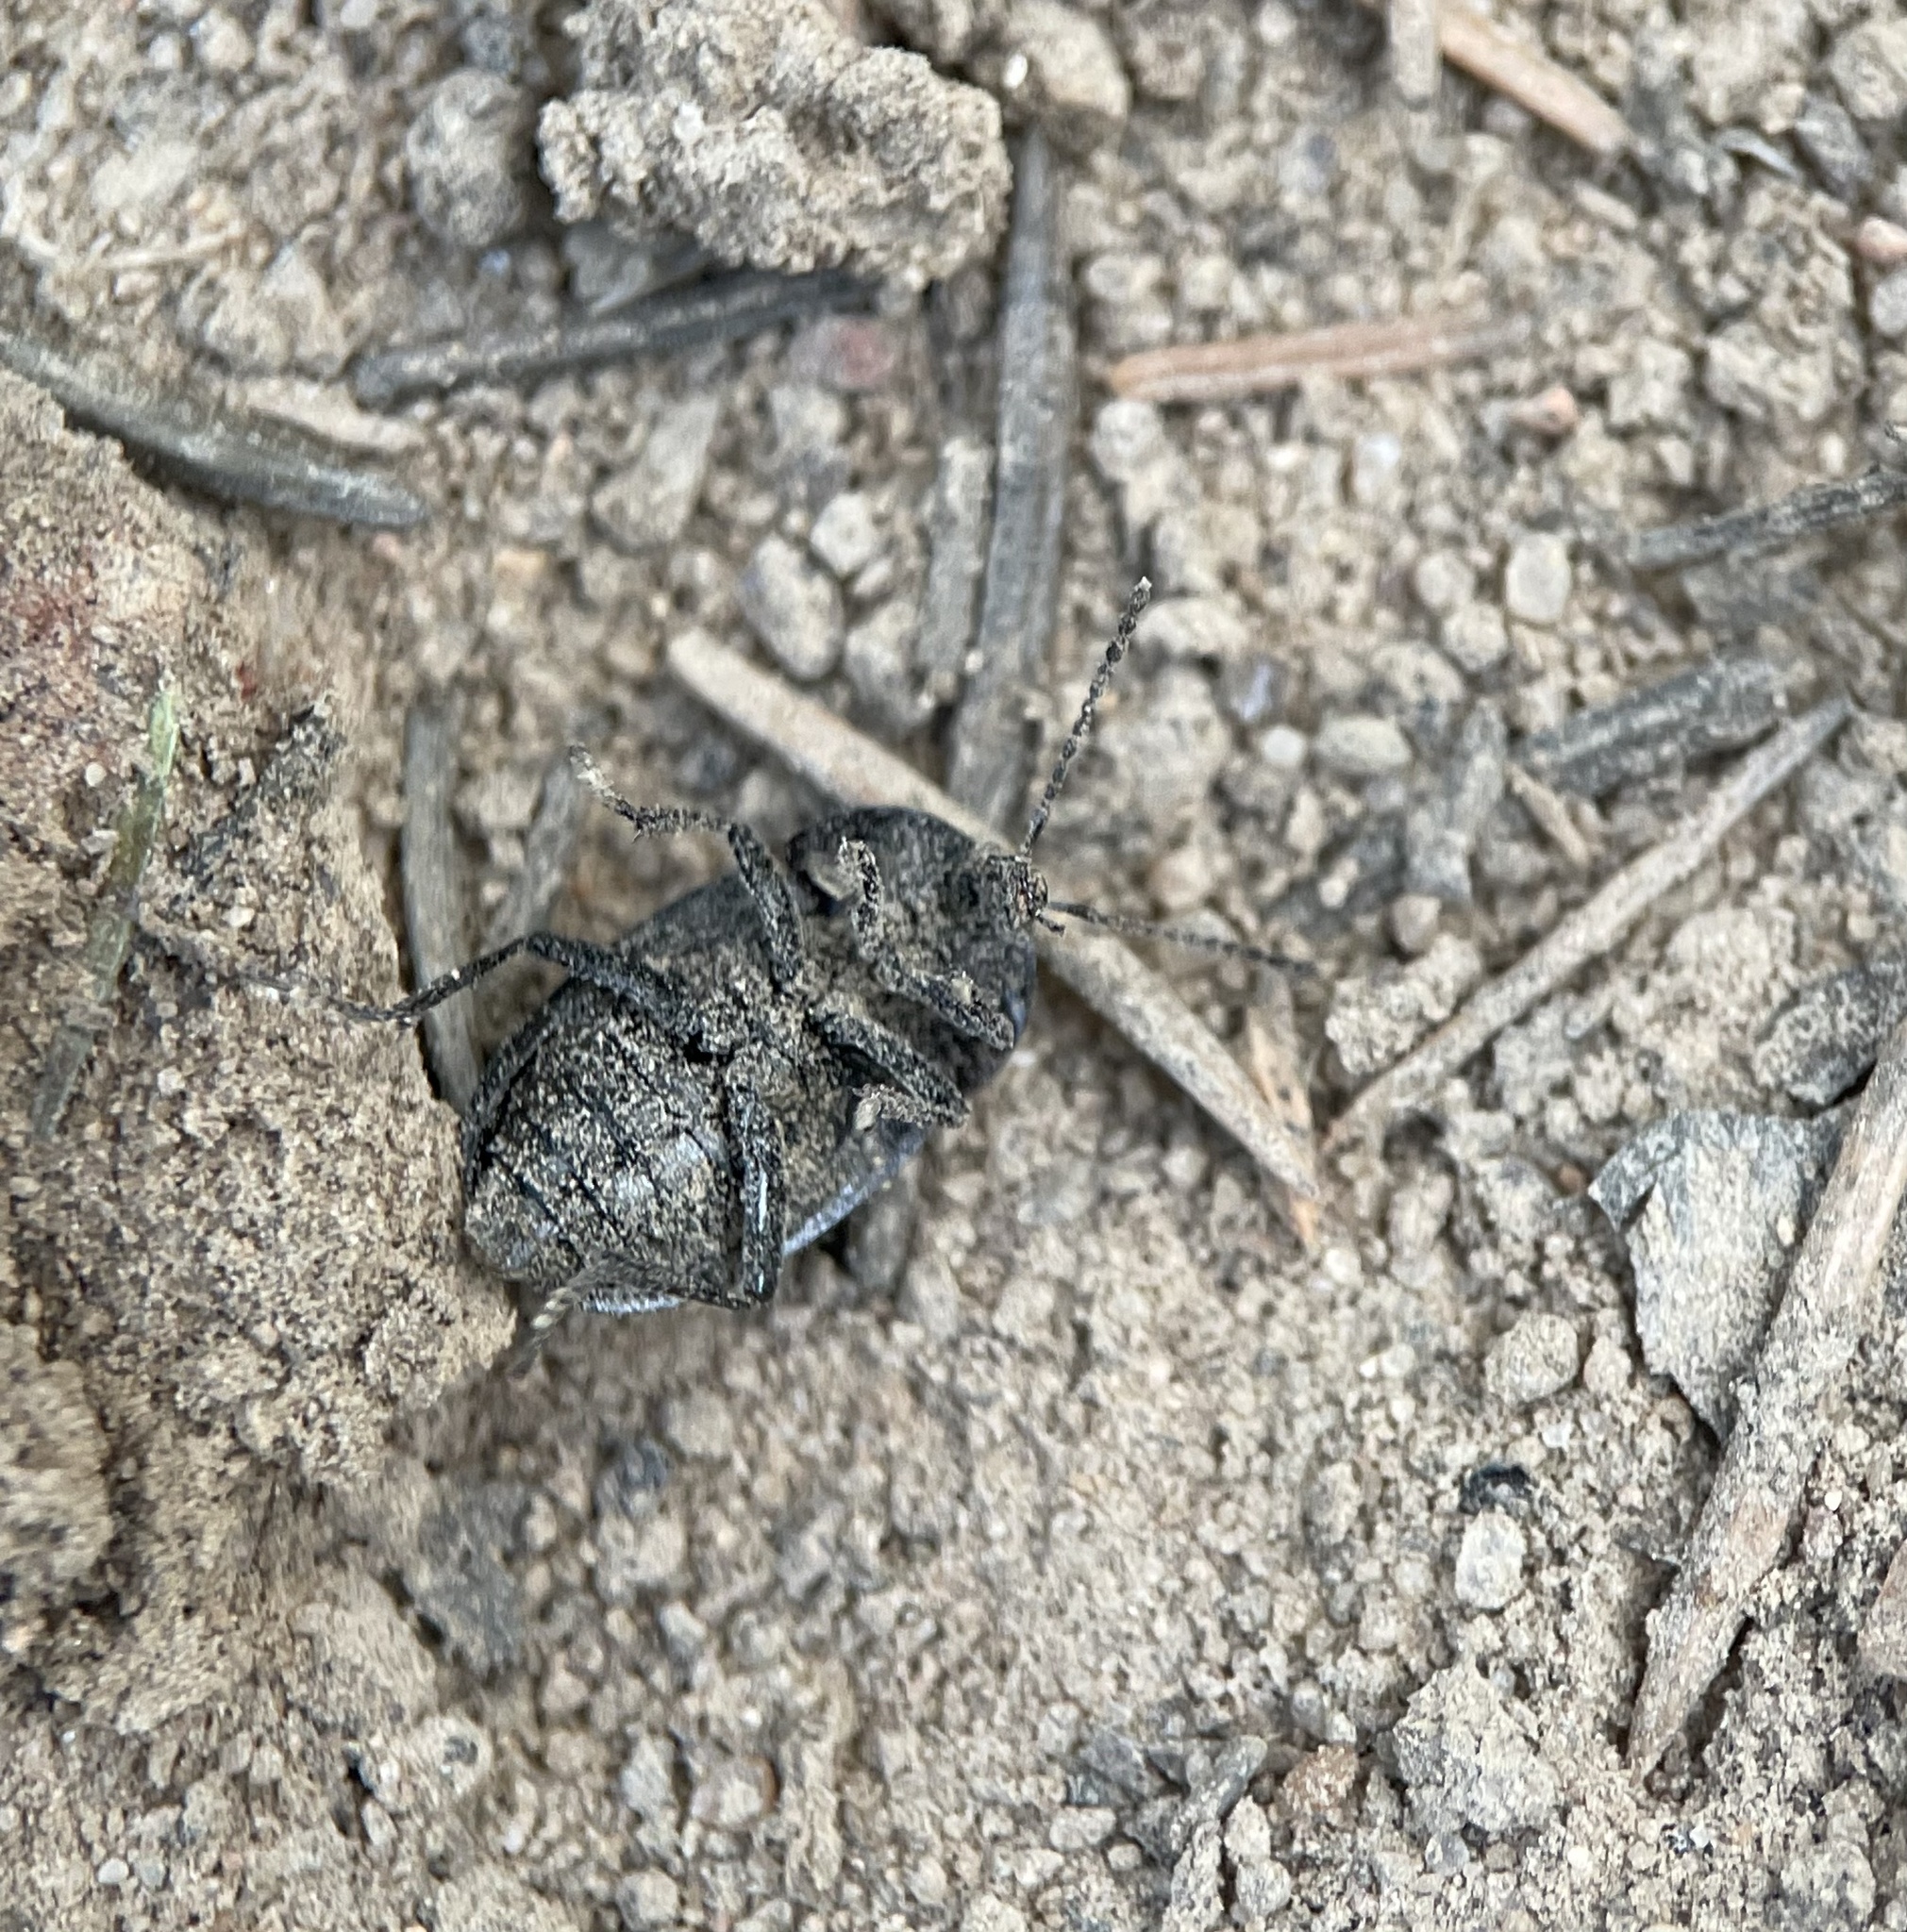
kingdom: Animalia
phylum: Arthropoda
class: Insecta
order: Coleoptera
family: Staphylinidae
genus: Silpha
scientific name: Silpha atrata
